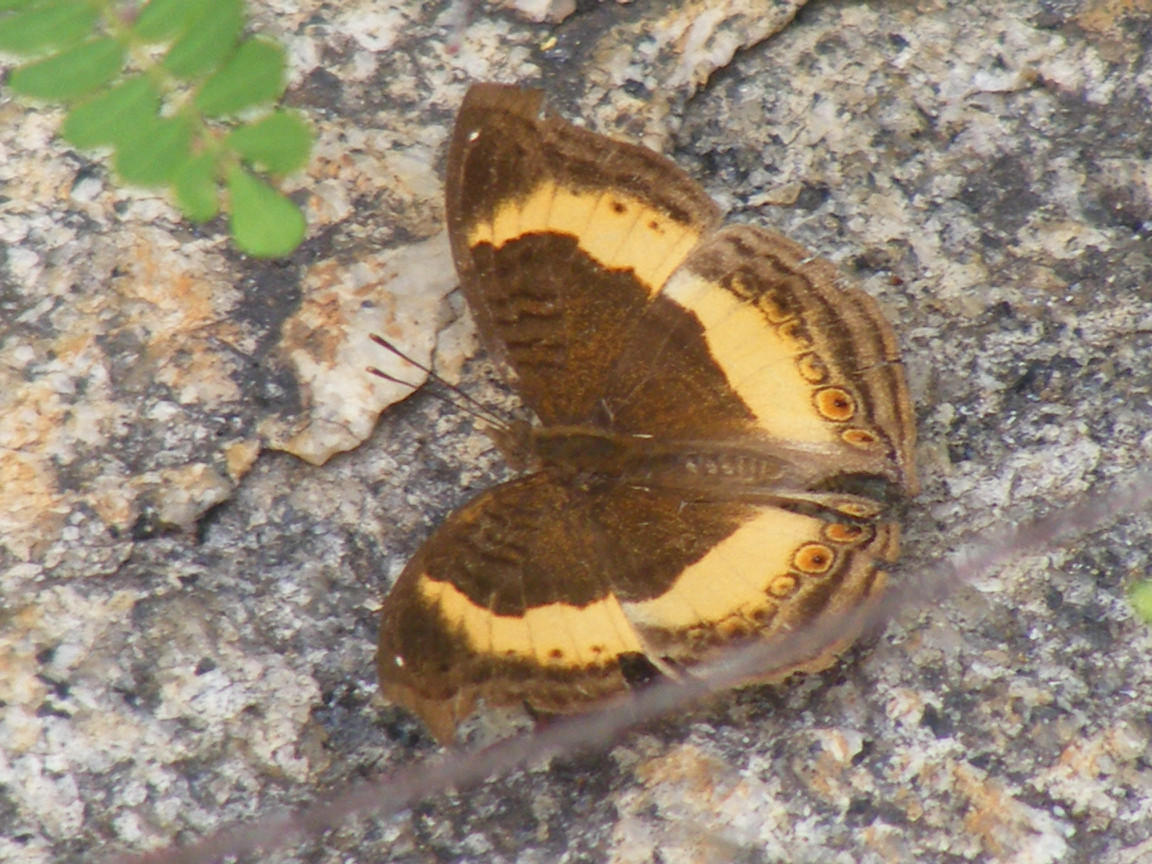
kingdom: Animalia
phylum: Arthropoda
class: Insecta
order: Lepidoptera
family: Nymphalidae
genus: Junonia
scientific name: Junonia terea
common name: Soldier pansy
